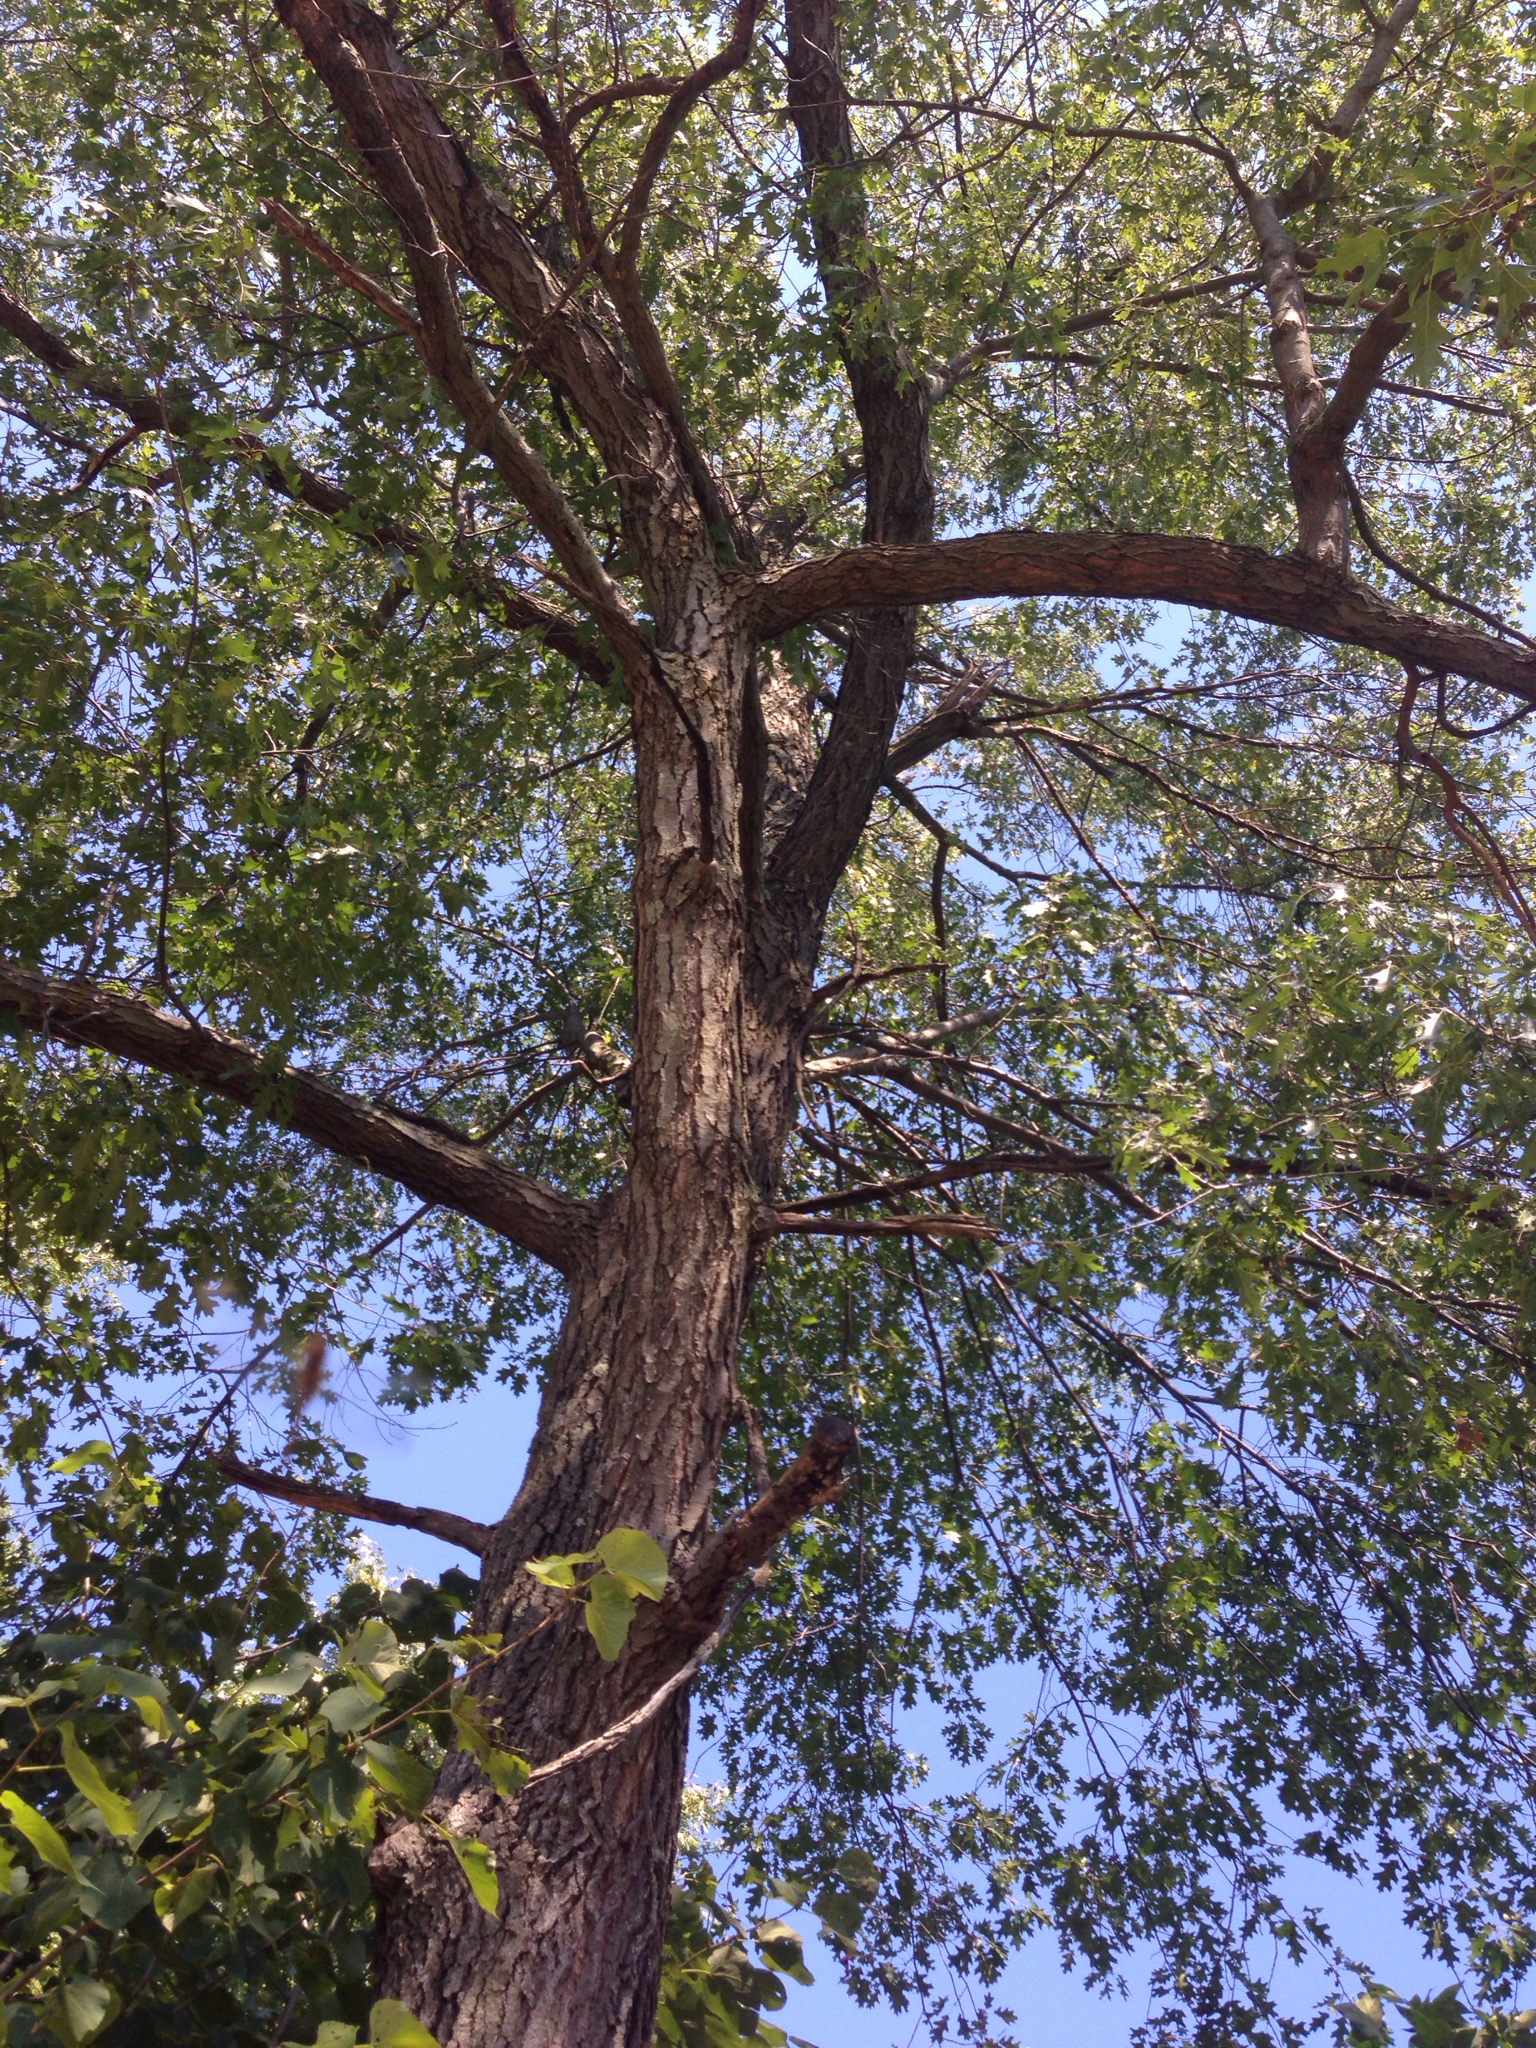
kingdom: Plantae
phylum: Tracheophyta
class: Magnoliopsida
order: Fagales
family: Fagaceae
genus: Quercus
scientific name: Quercus velutina
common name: Black oak
